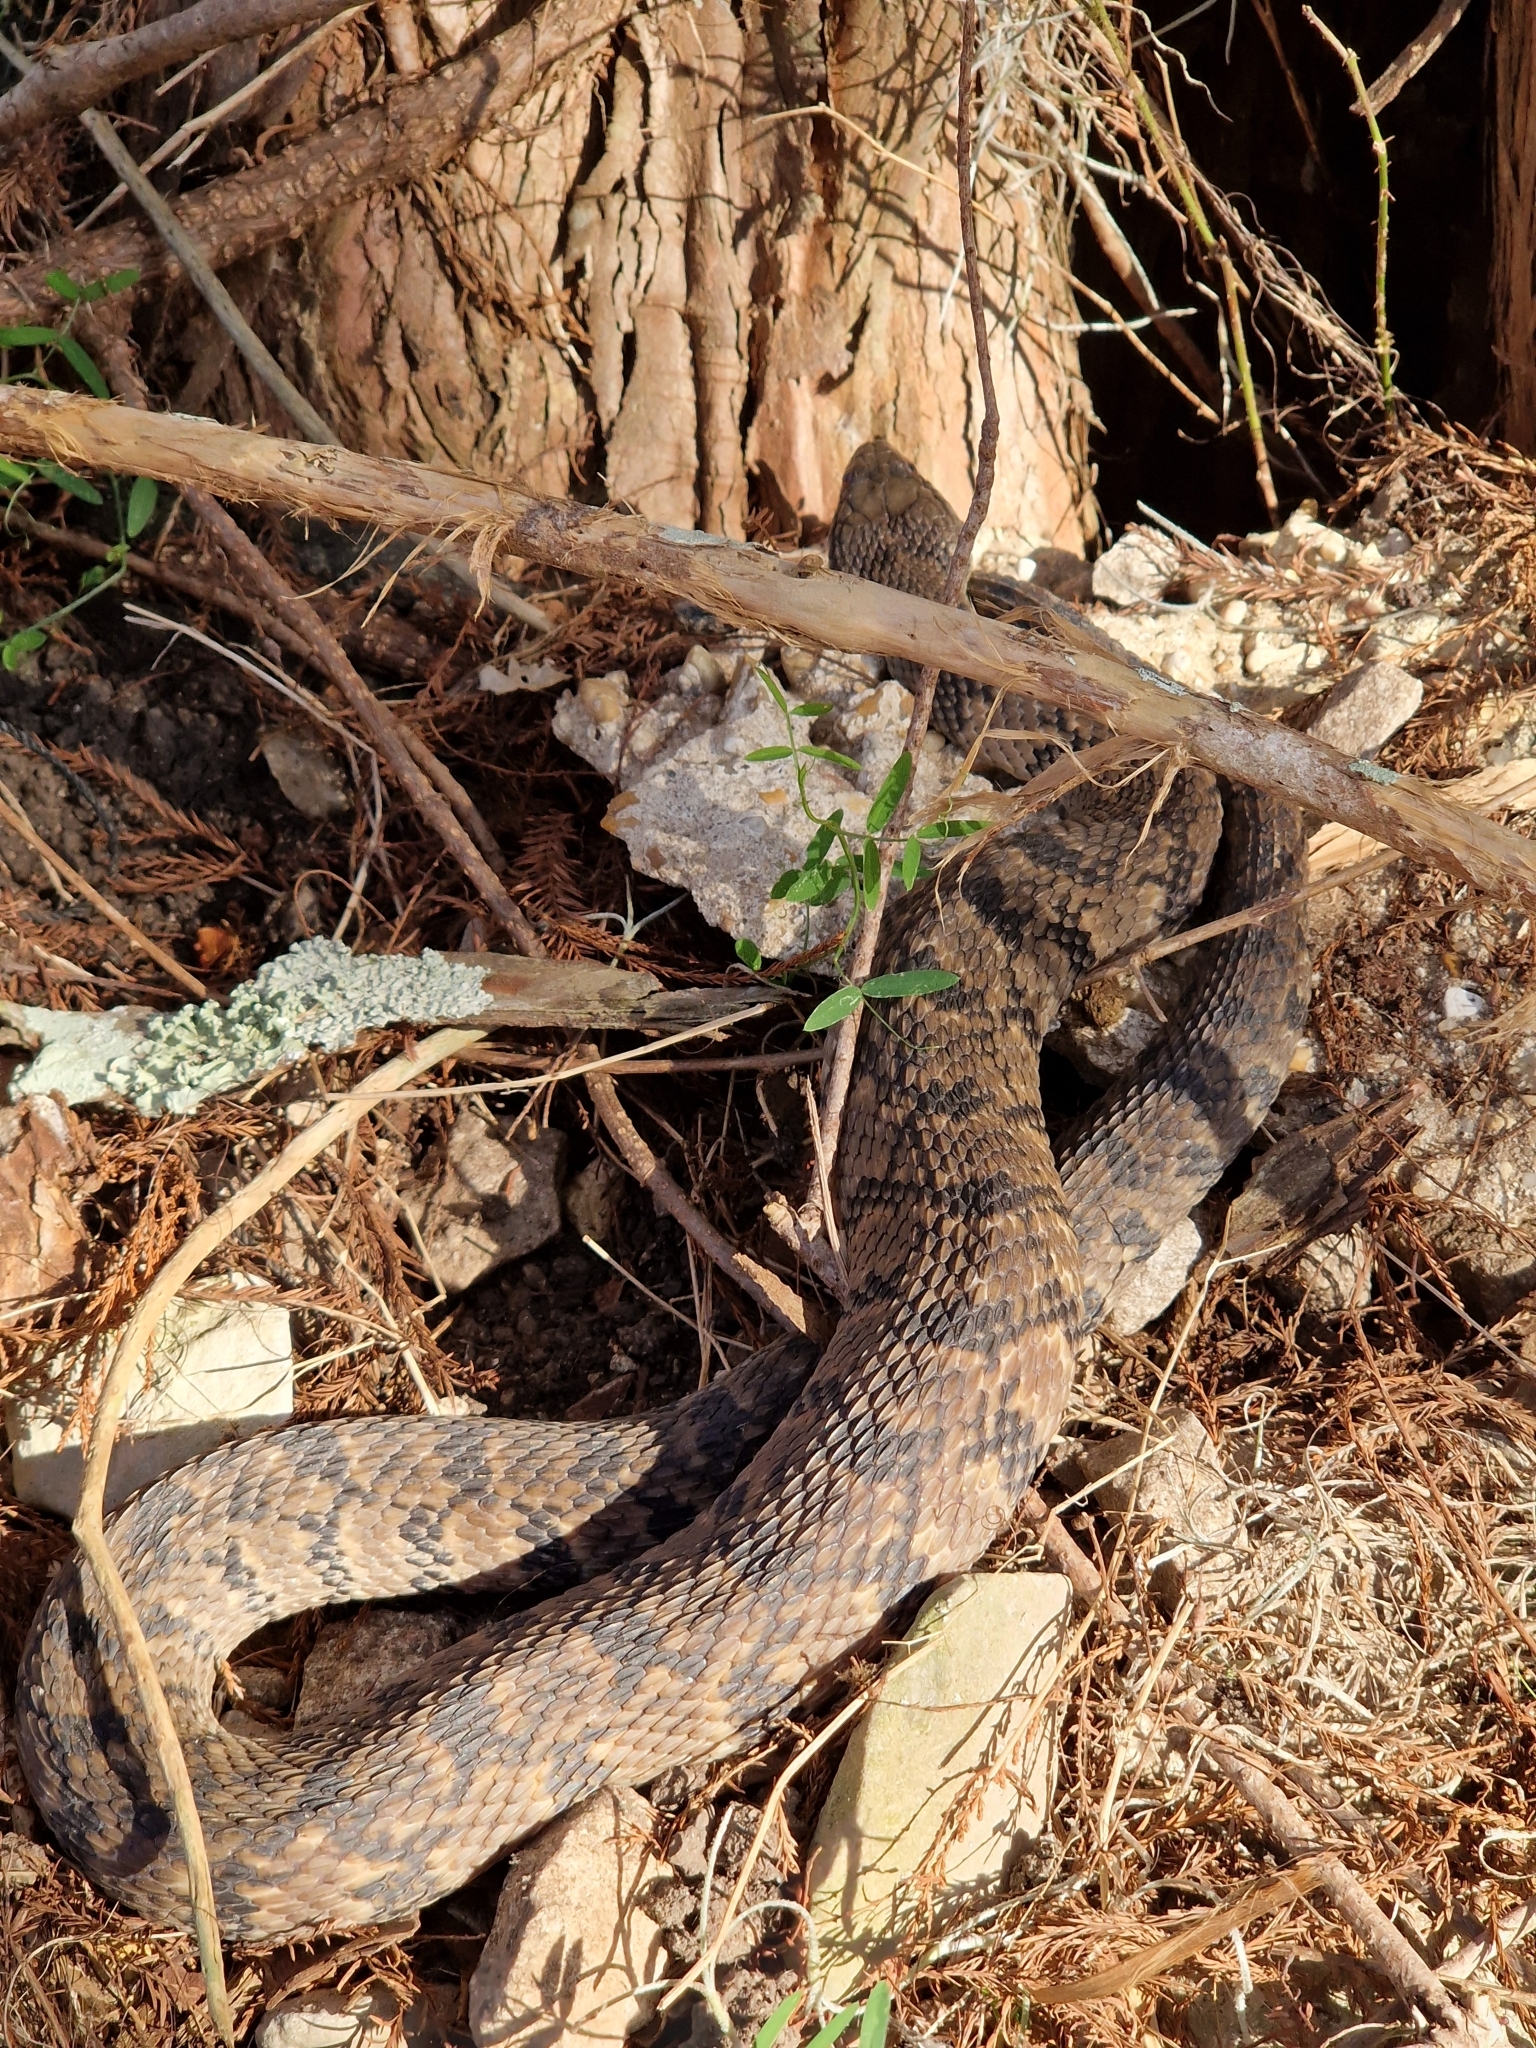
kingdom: Animalia
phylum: Chordata
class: Squamata
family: Colubridae
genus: Nerodia
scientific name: Nerodia rhombifer
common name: Diamondback water snake
